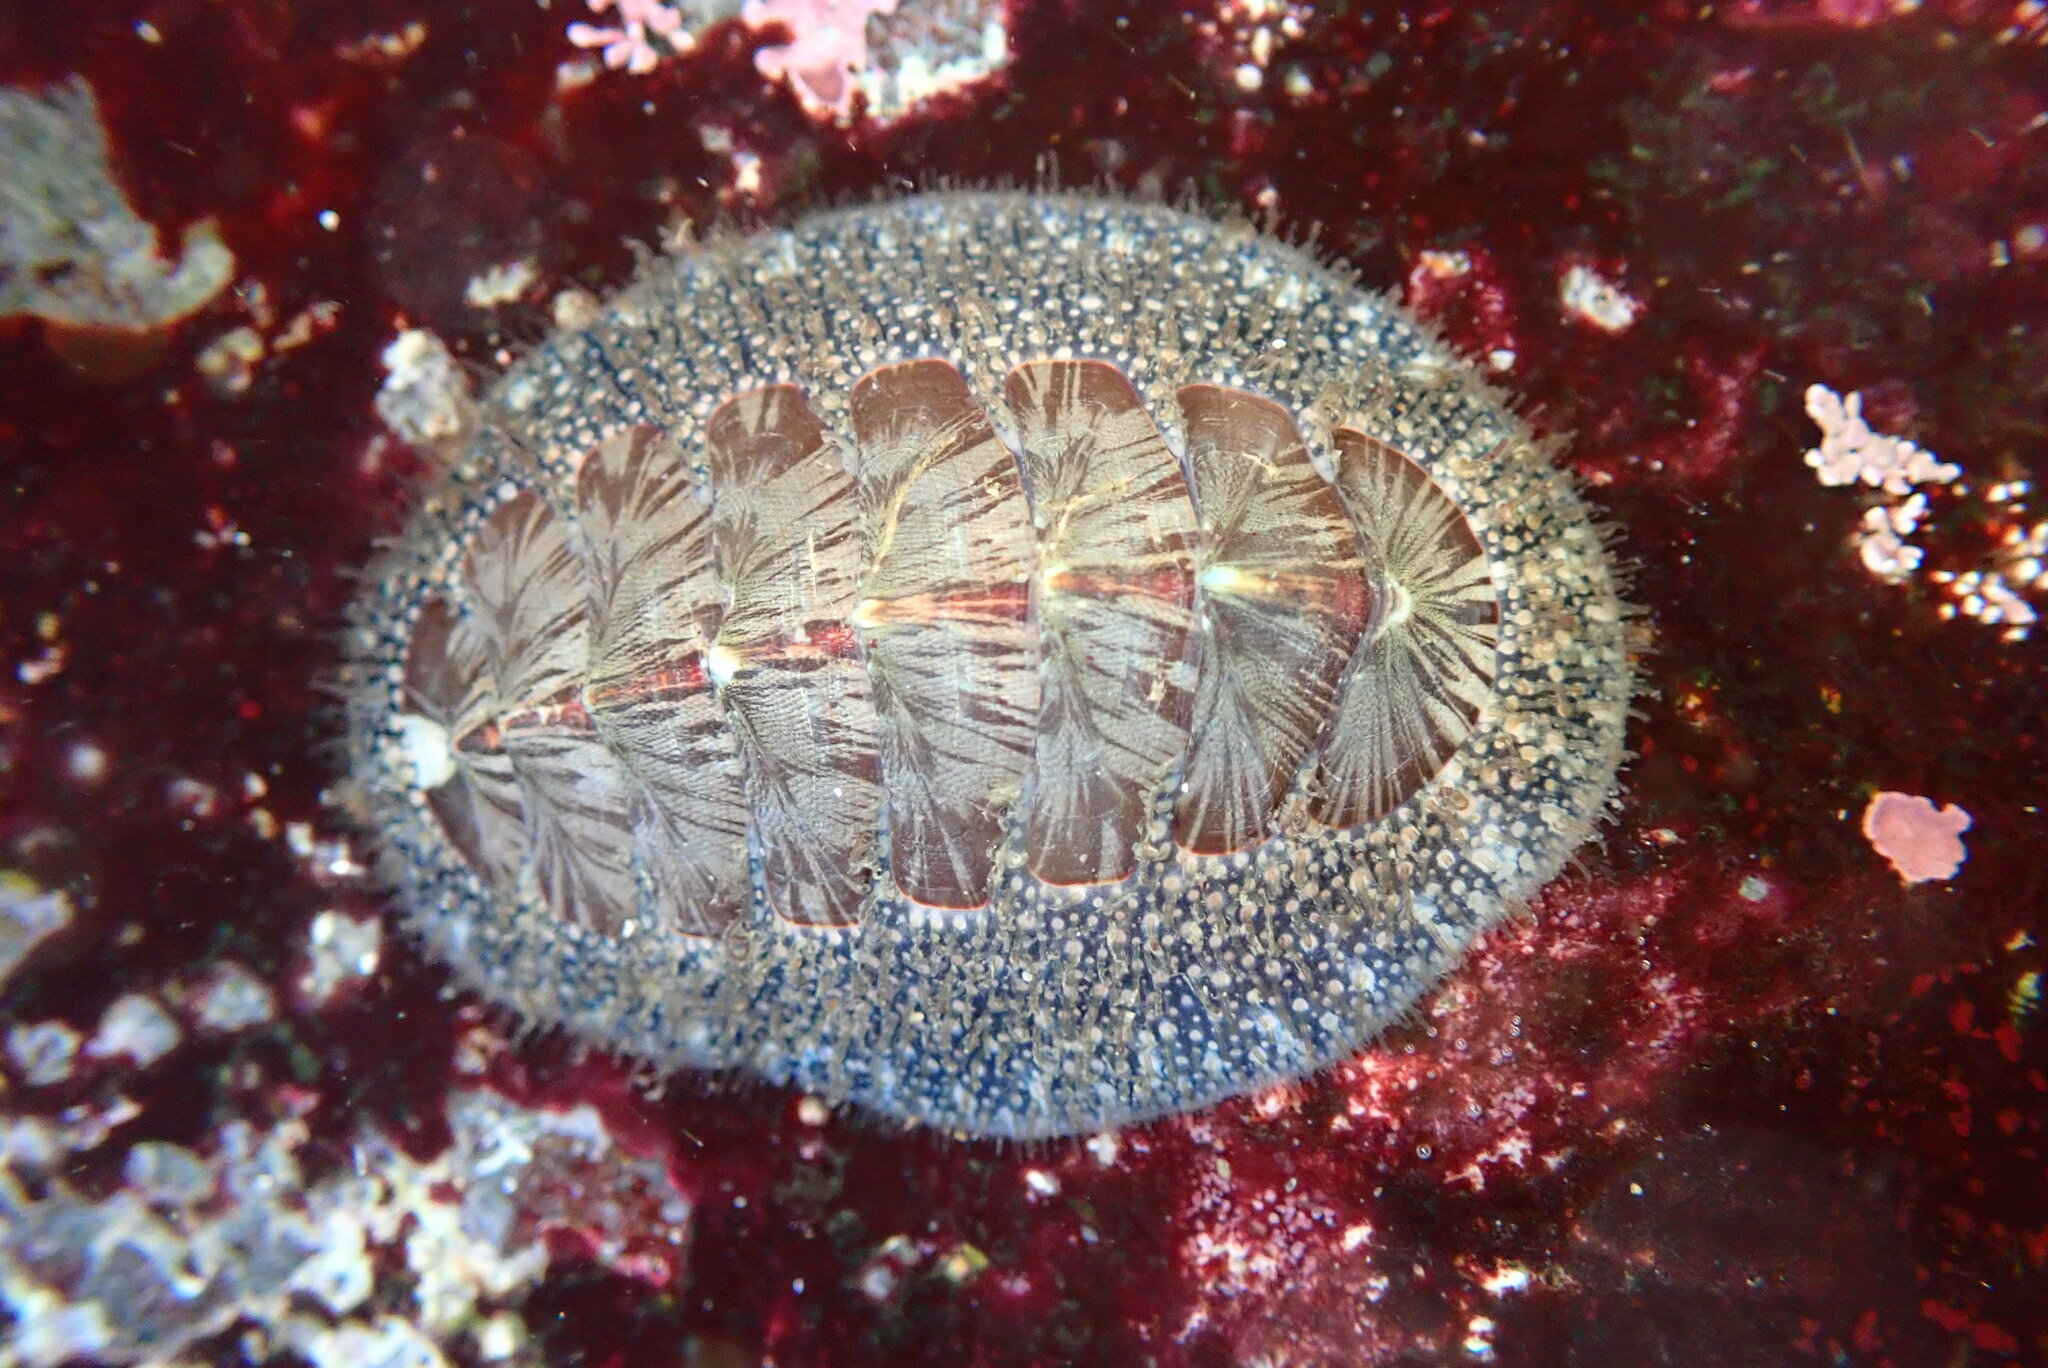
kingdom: Animalia
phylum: Mollusca
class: Polyplacophora
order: Chitonida
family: Mopaliidae
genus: Mopalia
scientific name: Mopalia lignosa
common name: Woody chiton
